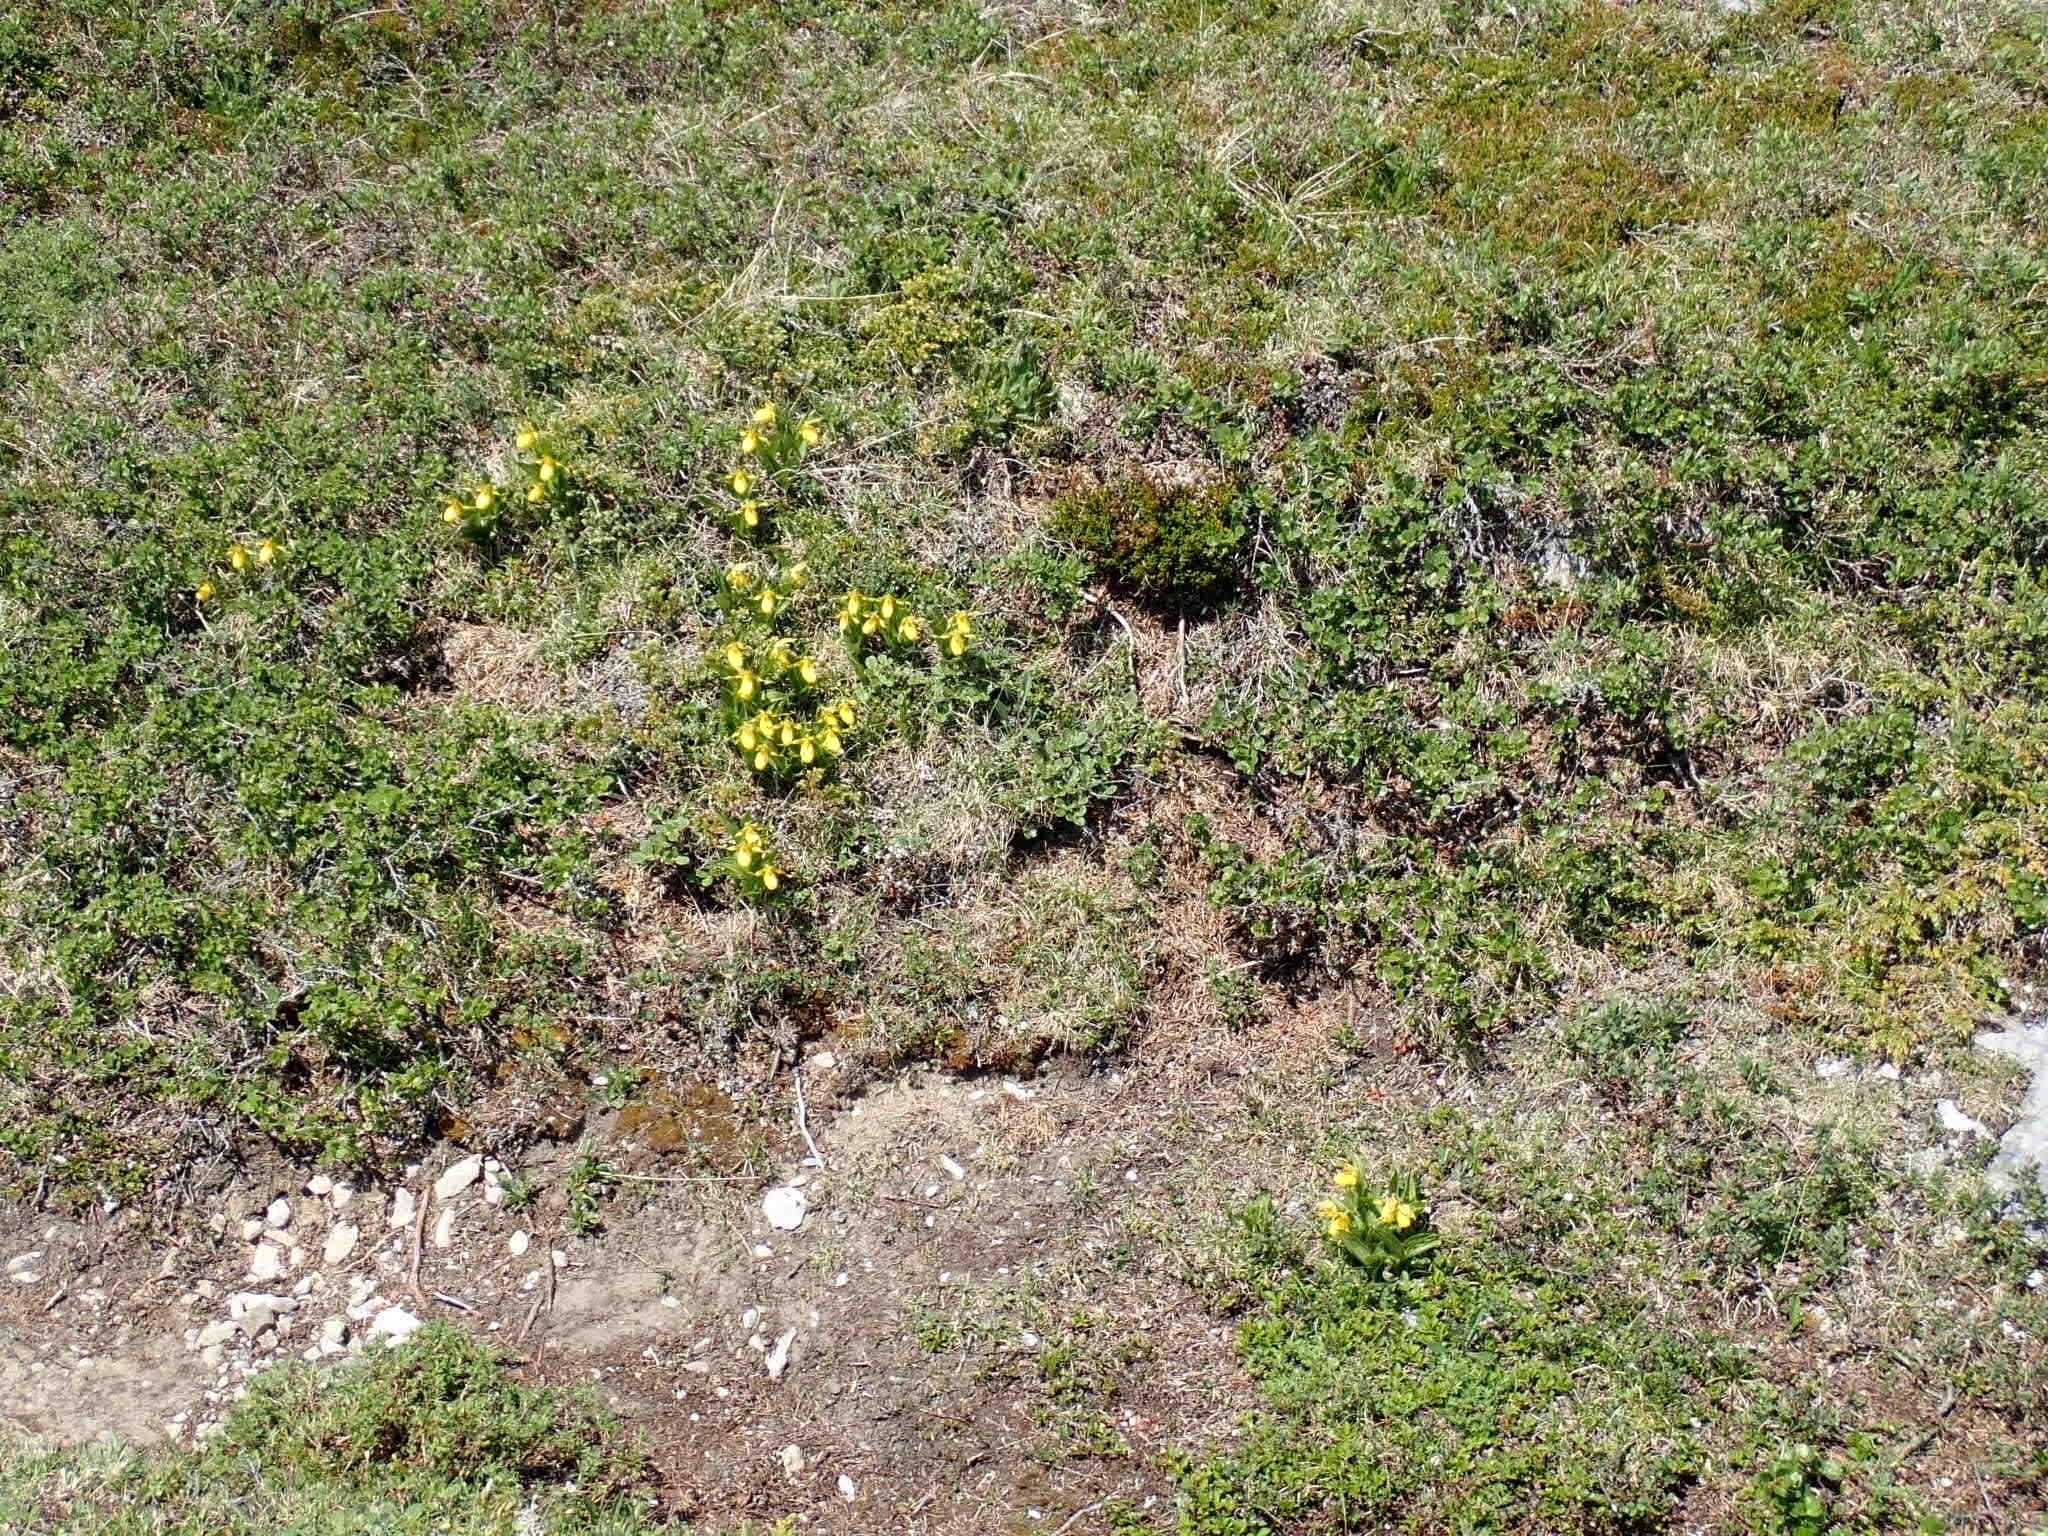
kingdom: Plantae
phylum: Tracheophyta
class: Liliopsida
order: Asparagales
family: Orchidaceae
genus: Cypripedium
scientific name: Cypripedium parviflorum
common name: American yellow lady's-slipper
